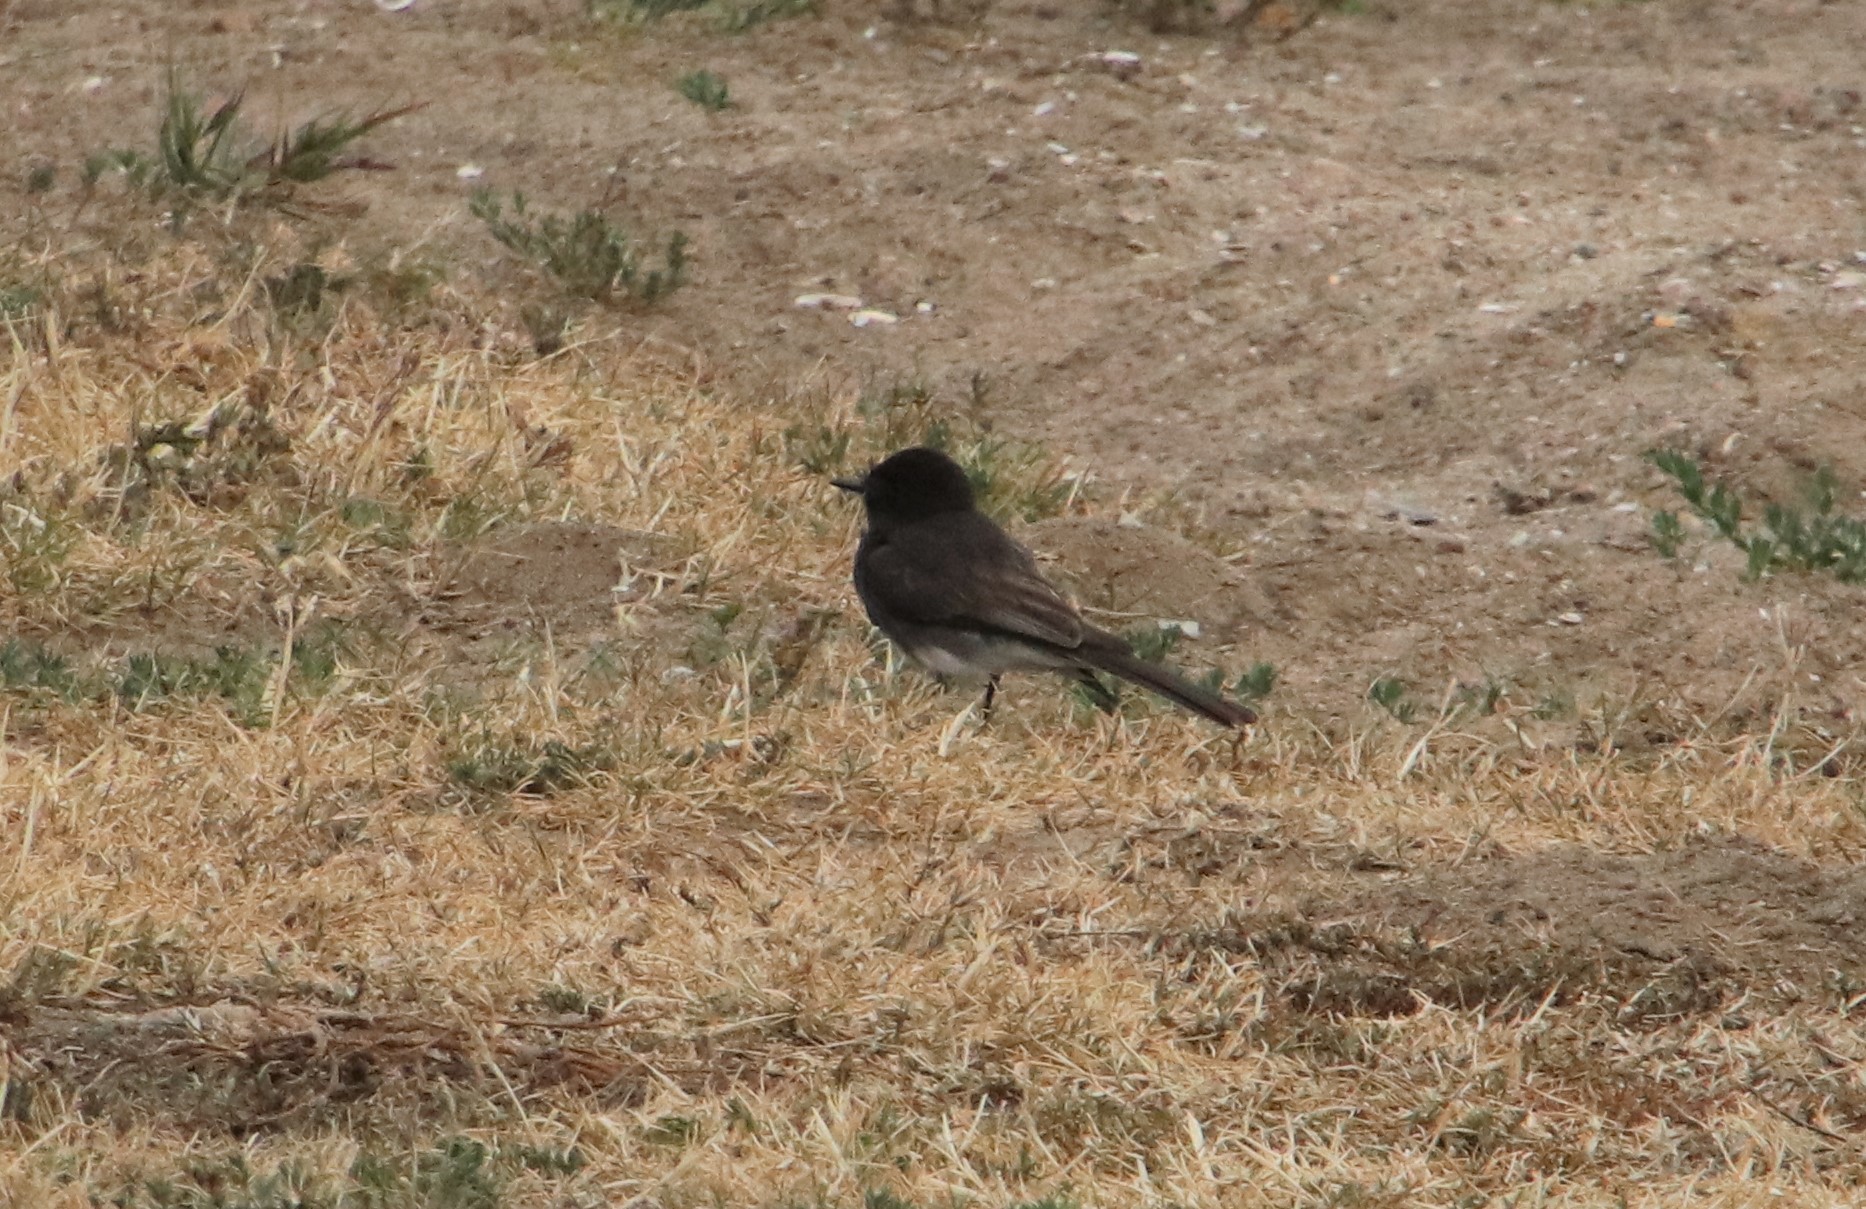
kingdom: Animalia
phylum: Chordata
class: Aves
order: Passeriformes
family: Tyrannidae
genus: Sayornis
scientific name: Sayornis nigricans
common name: Black phoebe
